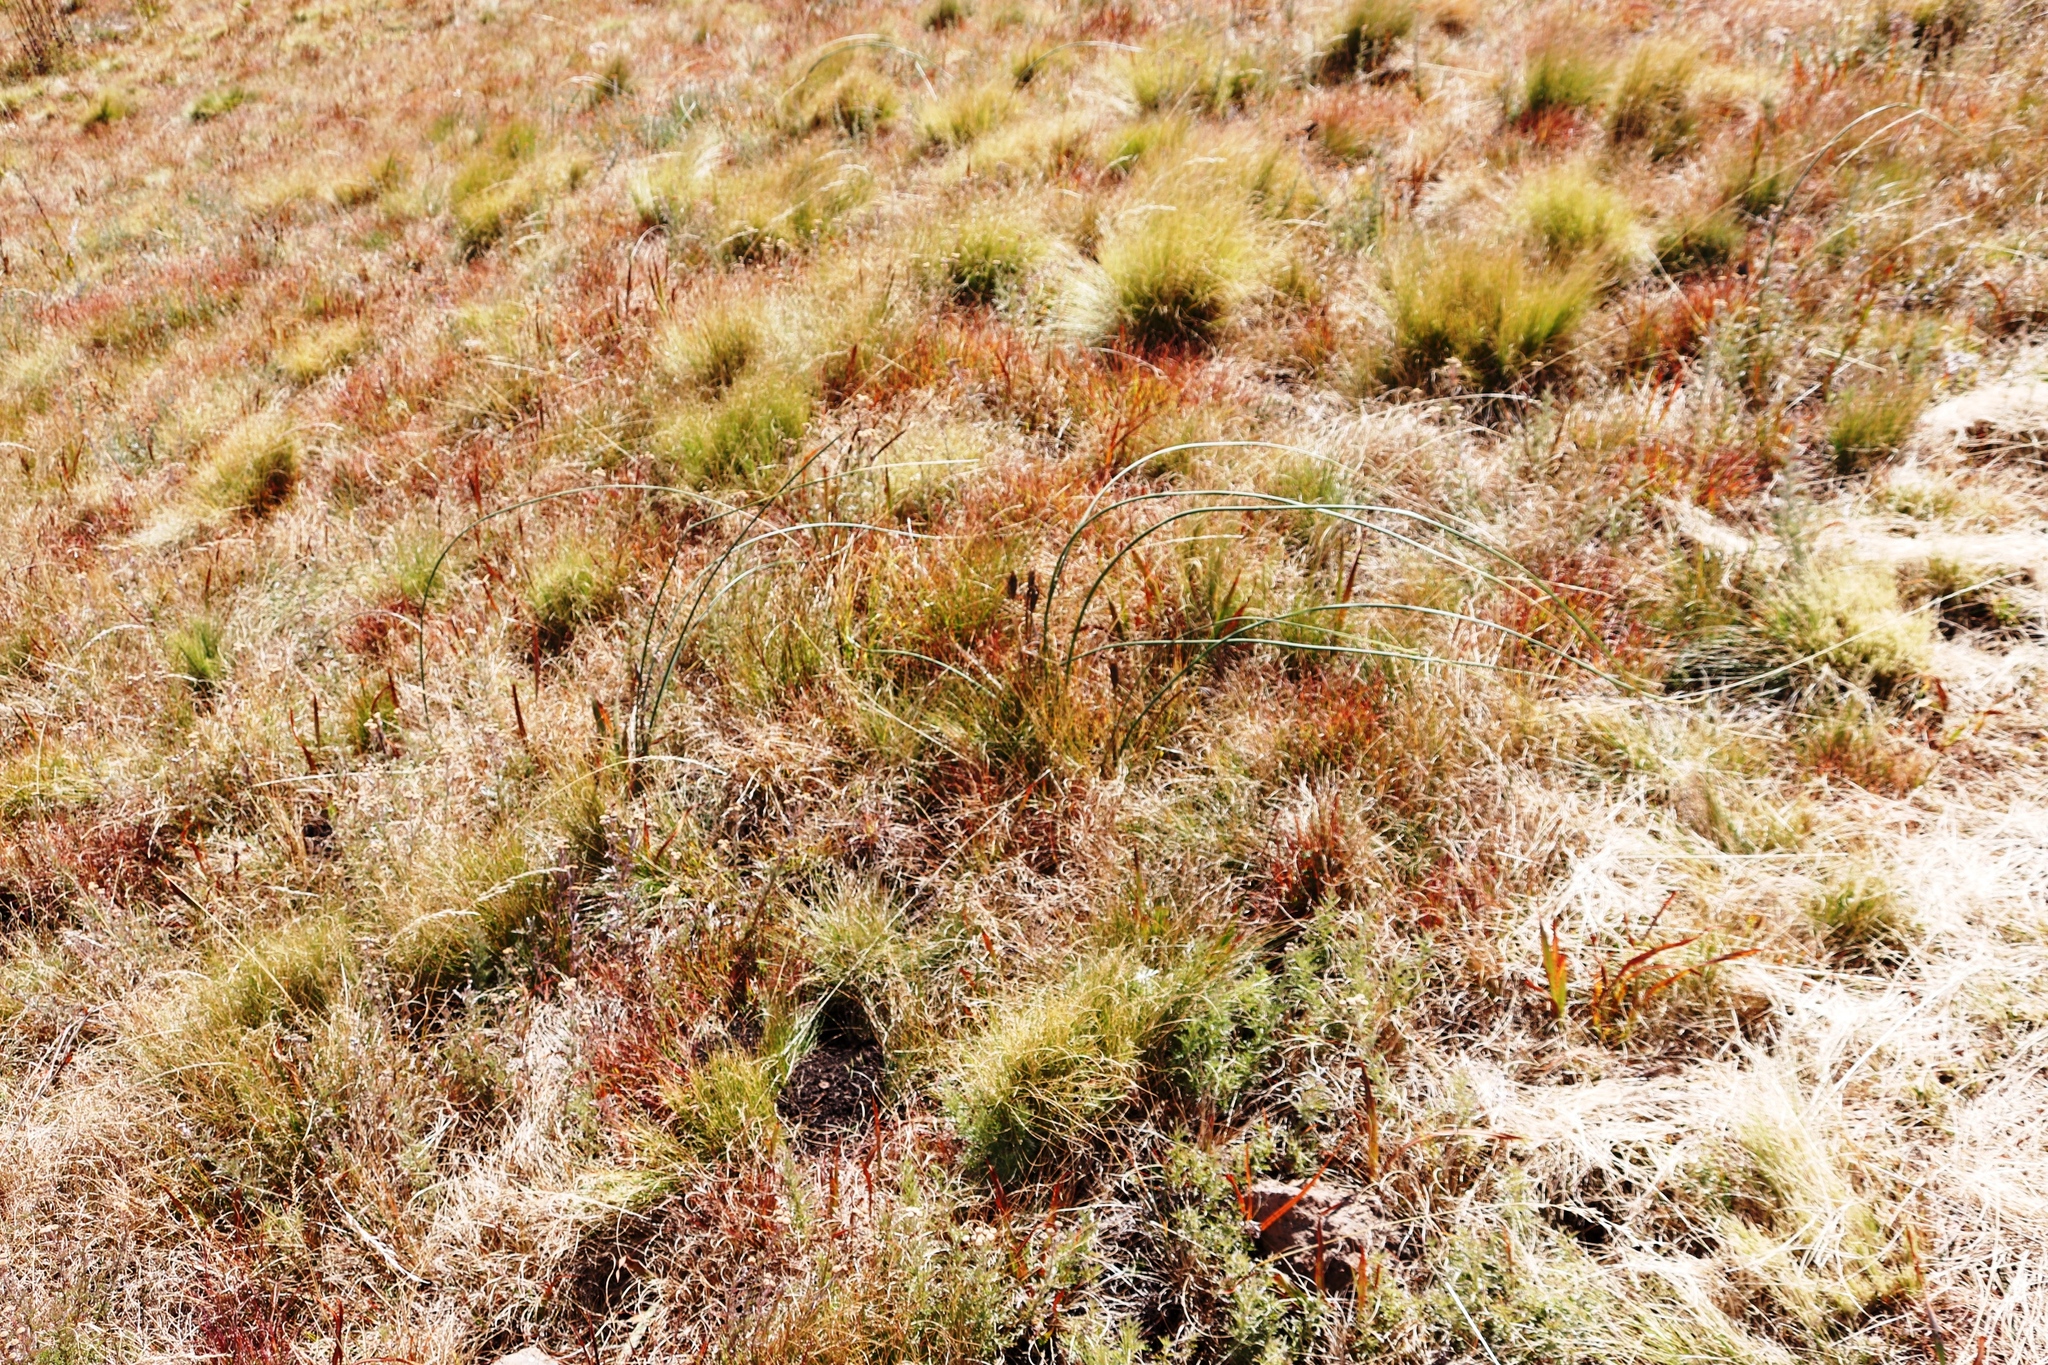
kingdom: Plantae
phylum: Tracheophyta
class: Liliopsida
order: Asparagales
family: Iridaceae
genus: Moraea
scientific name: Moraea robusta
